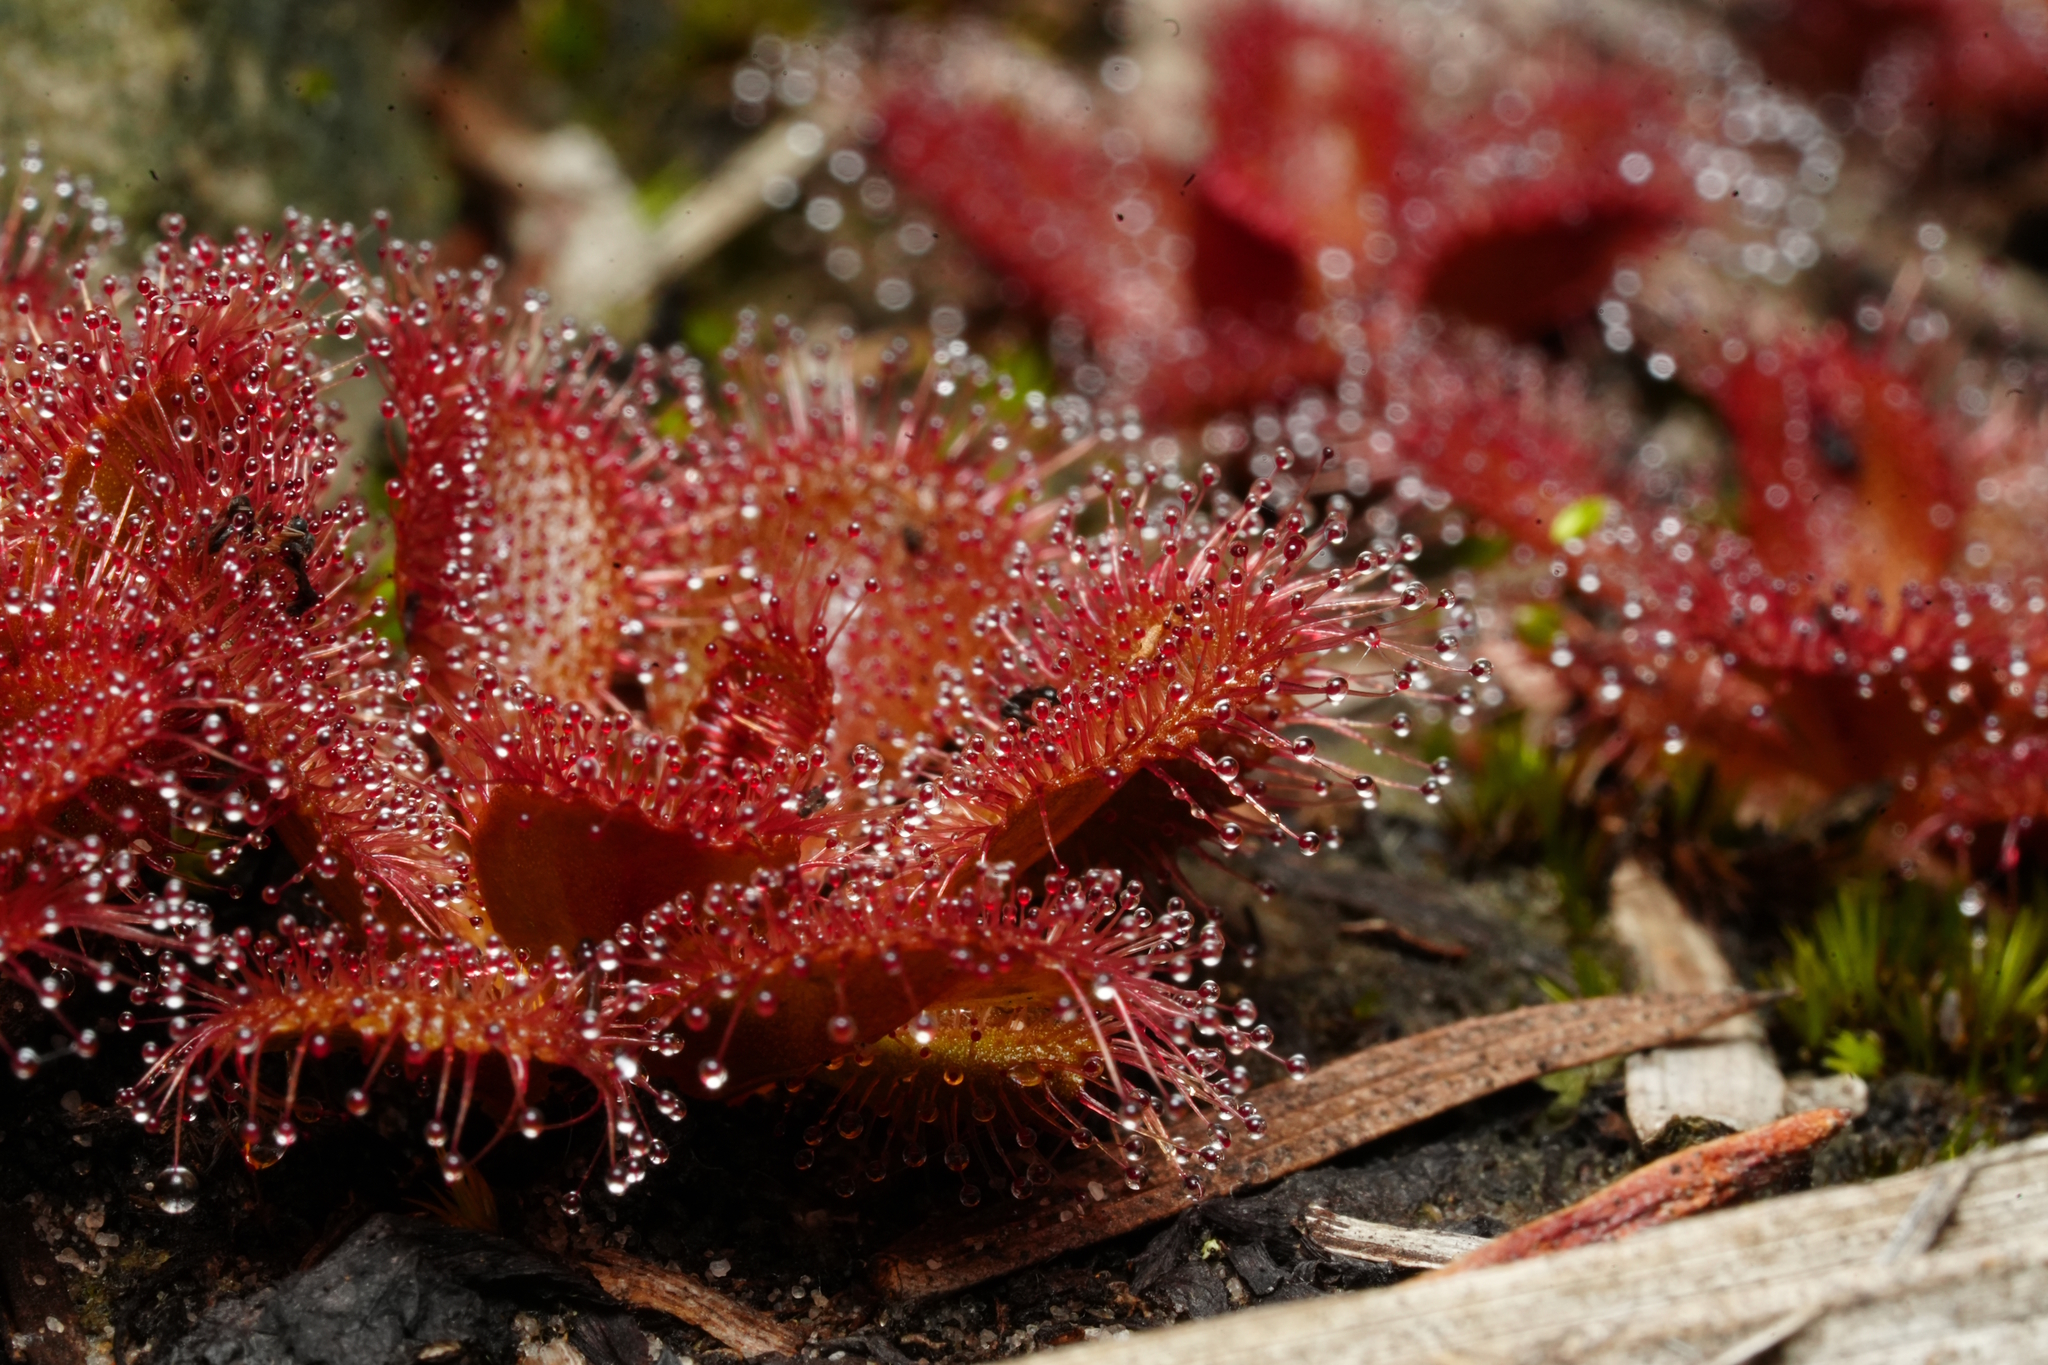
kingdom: Plantae
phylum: Tracheophyta
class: Magnoliopsida
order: Caryophyllales
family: Droseraceae
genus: Drosera
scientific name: Drosera aberrans
